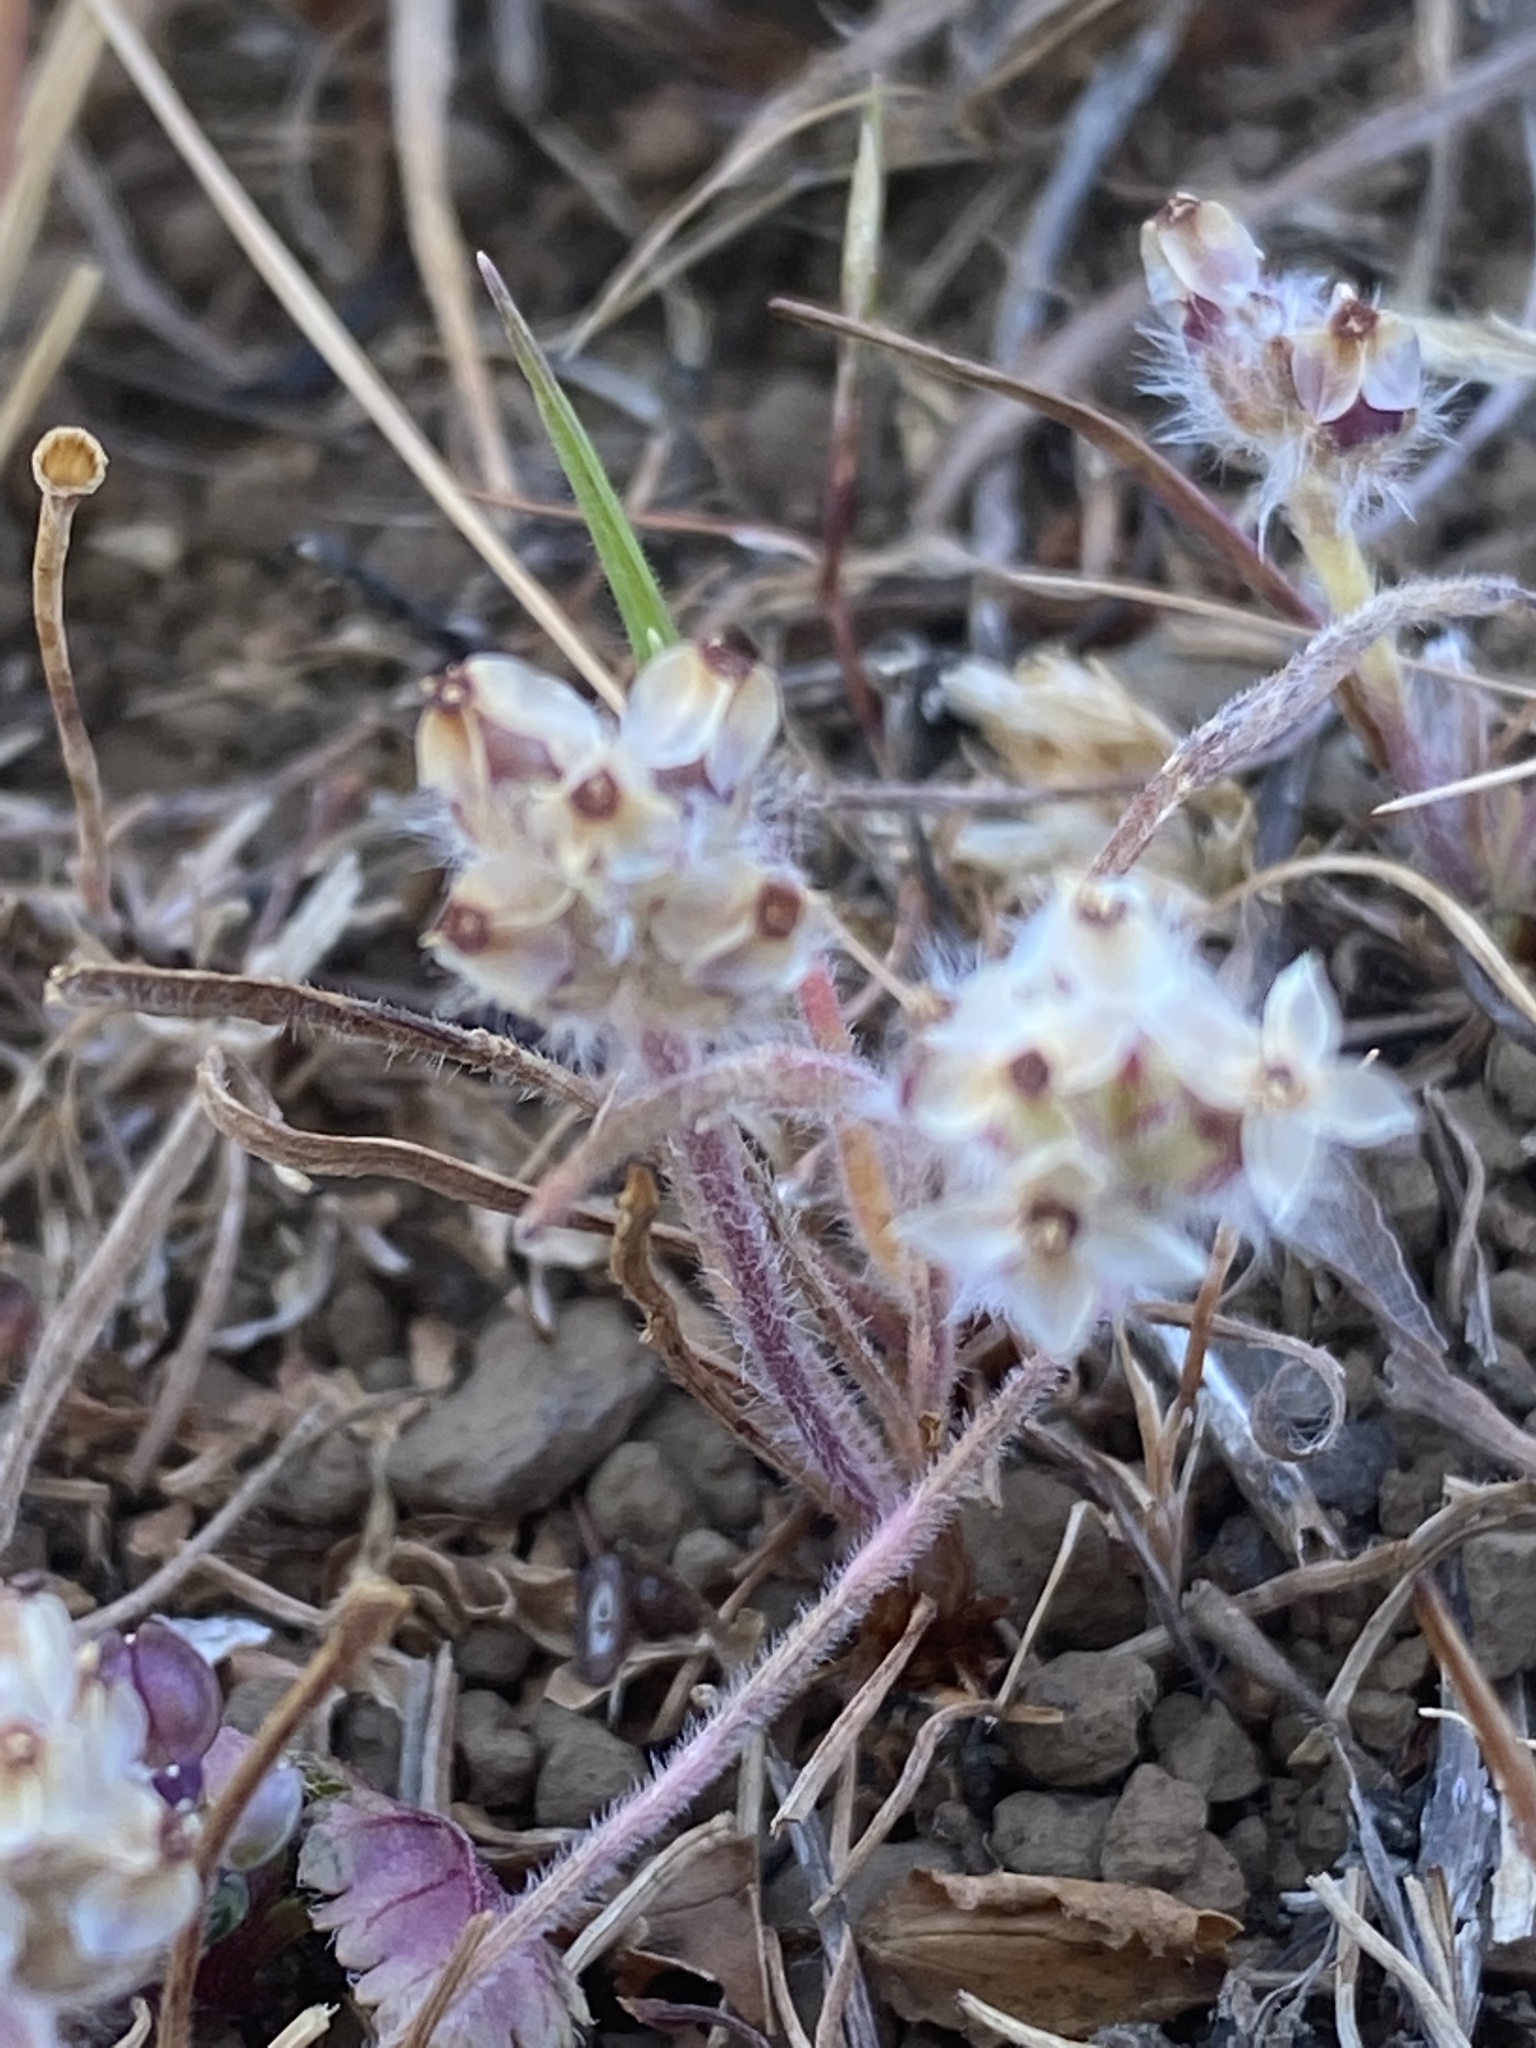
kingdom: Plantae
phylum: Tracheophyta
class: Magnoliopsida
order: Lamiales
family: Plantaginaceae
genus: Plantago
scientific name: Plantago erecta
